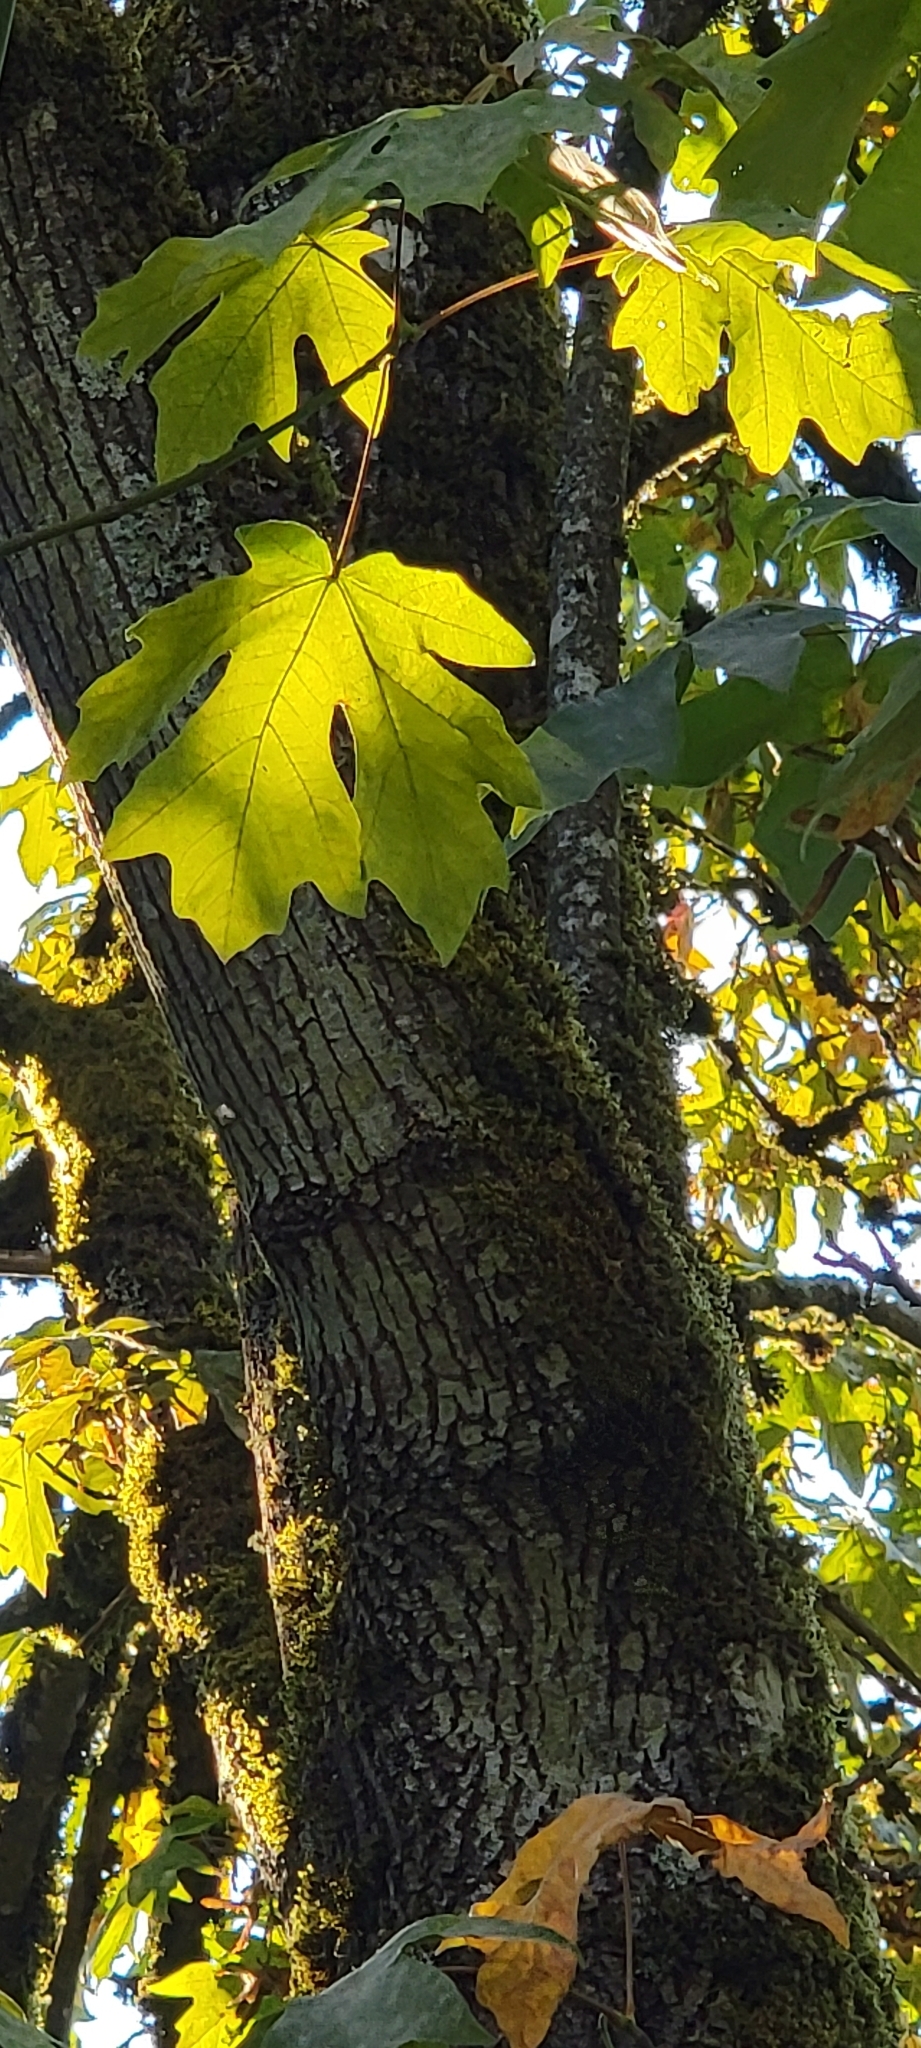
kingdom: Plantae
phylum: Tracheophyta
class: Magnoliopsida
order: Sapindales
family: Sapindaceae
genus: Acer
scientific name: Acer macrophyllum
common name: Oregon maple
